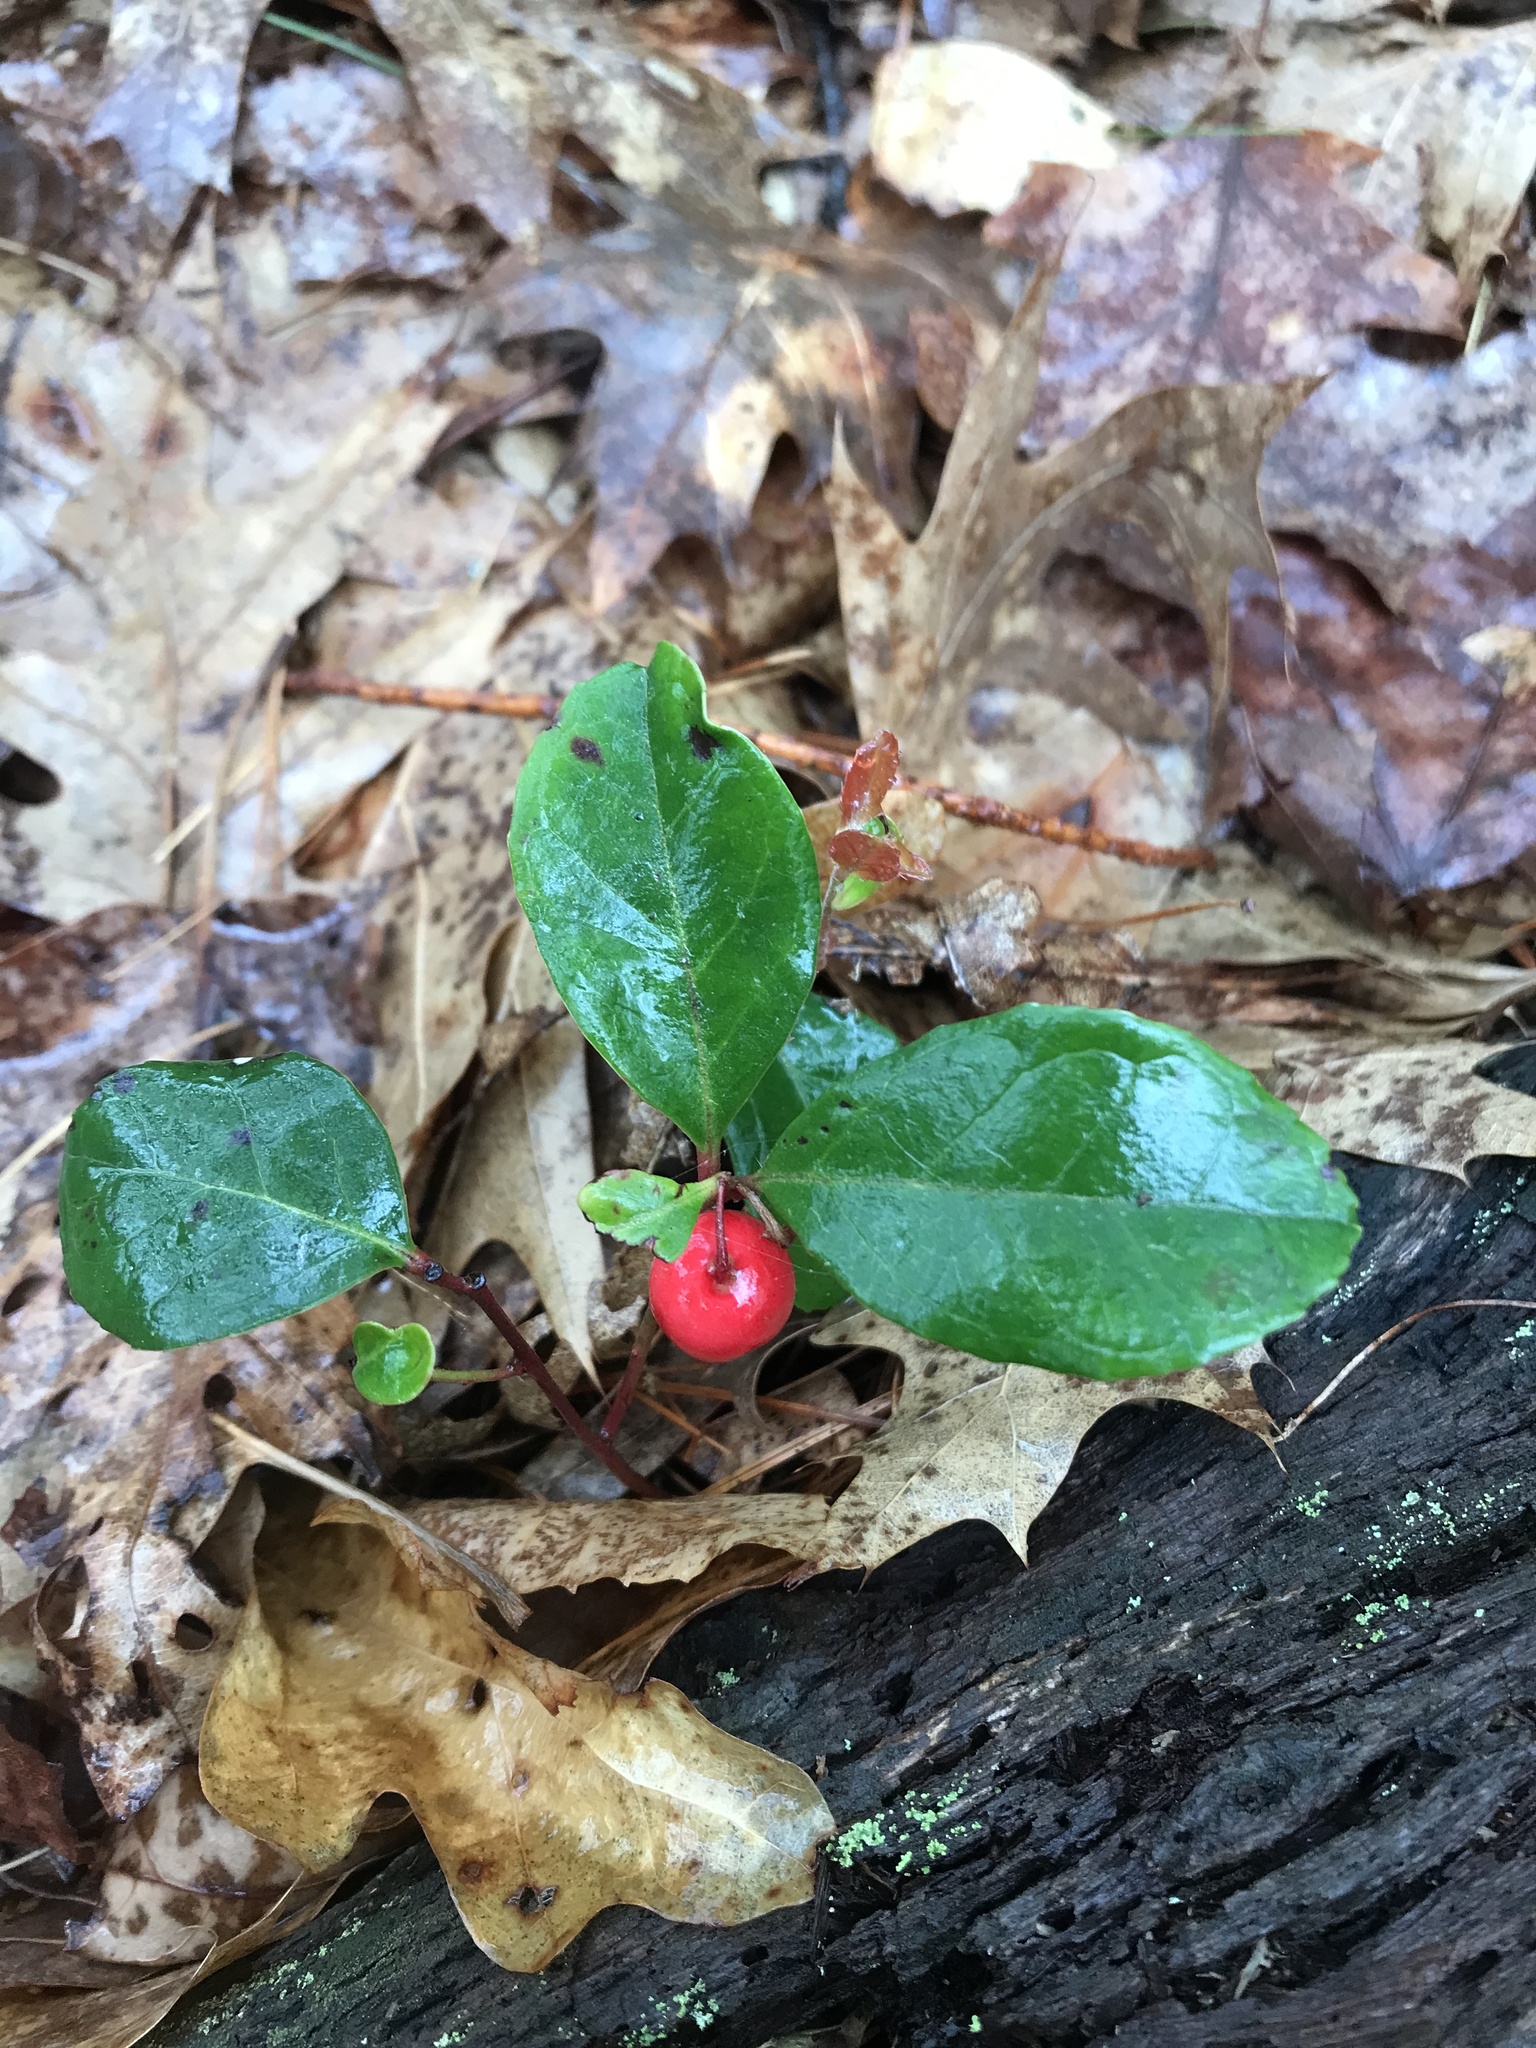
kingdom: Plantae
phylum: Tracheophyta
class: Magnoliopsida
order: Ericales
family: Ericaceae
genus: Gaultheria
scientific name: Gaultheria procumbens
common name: Checkerberry
